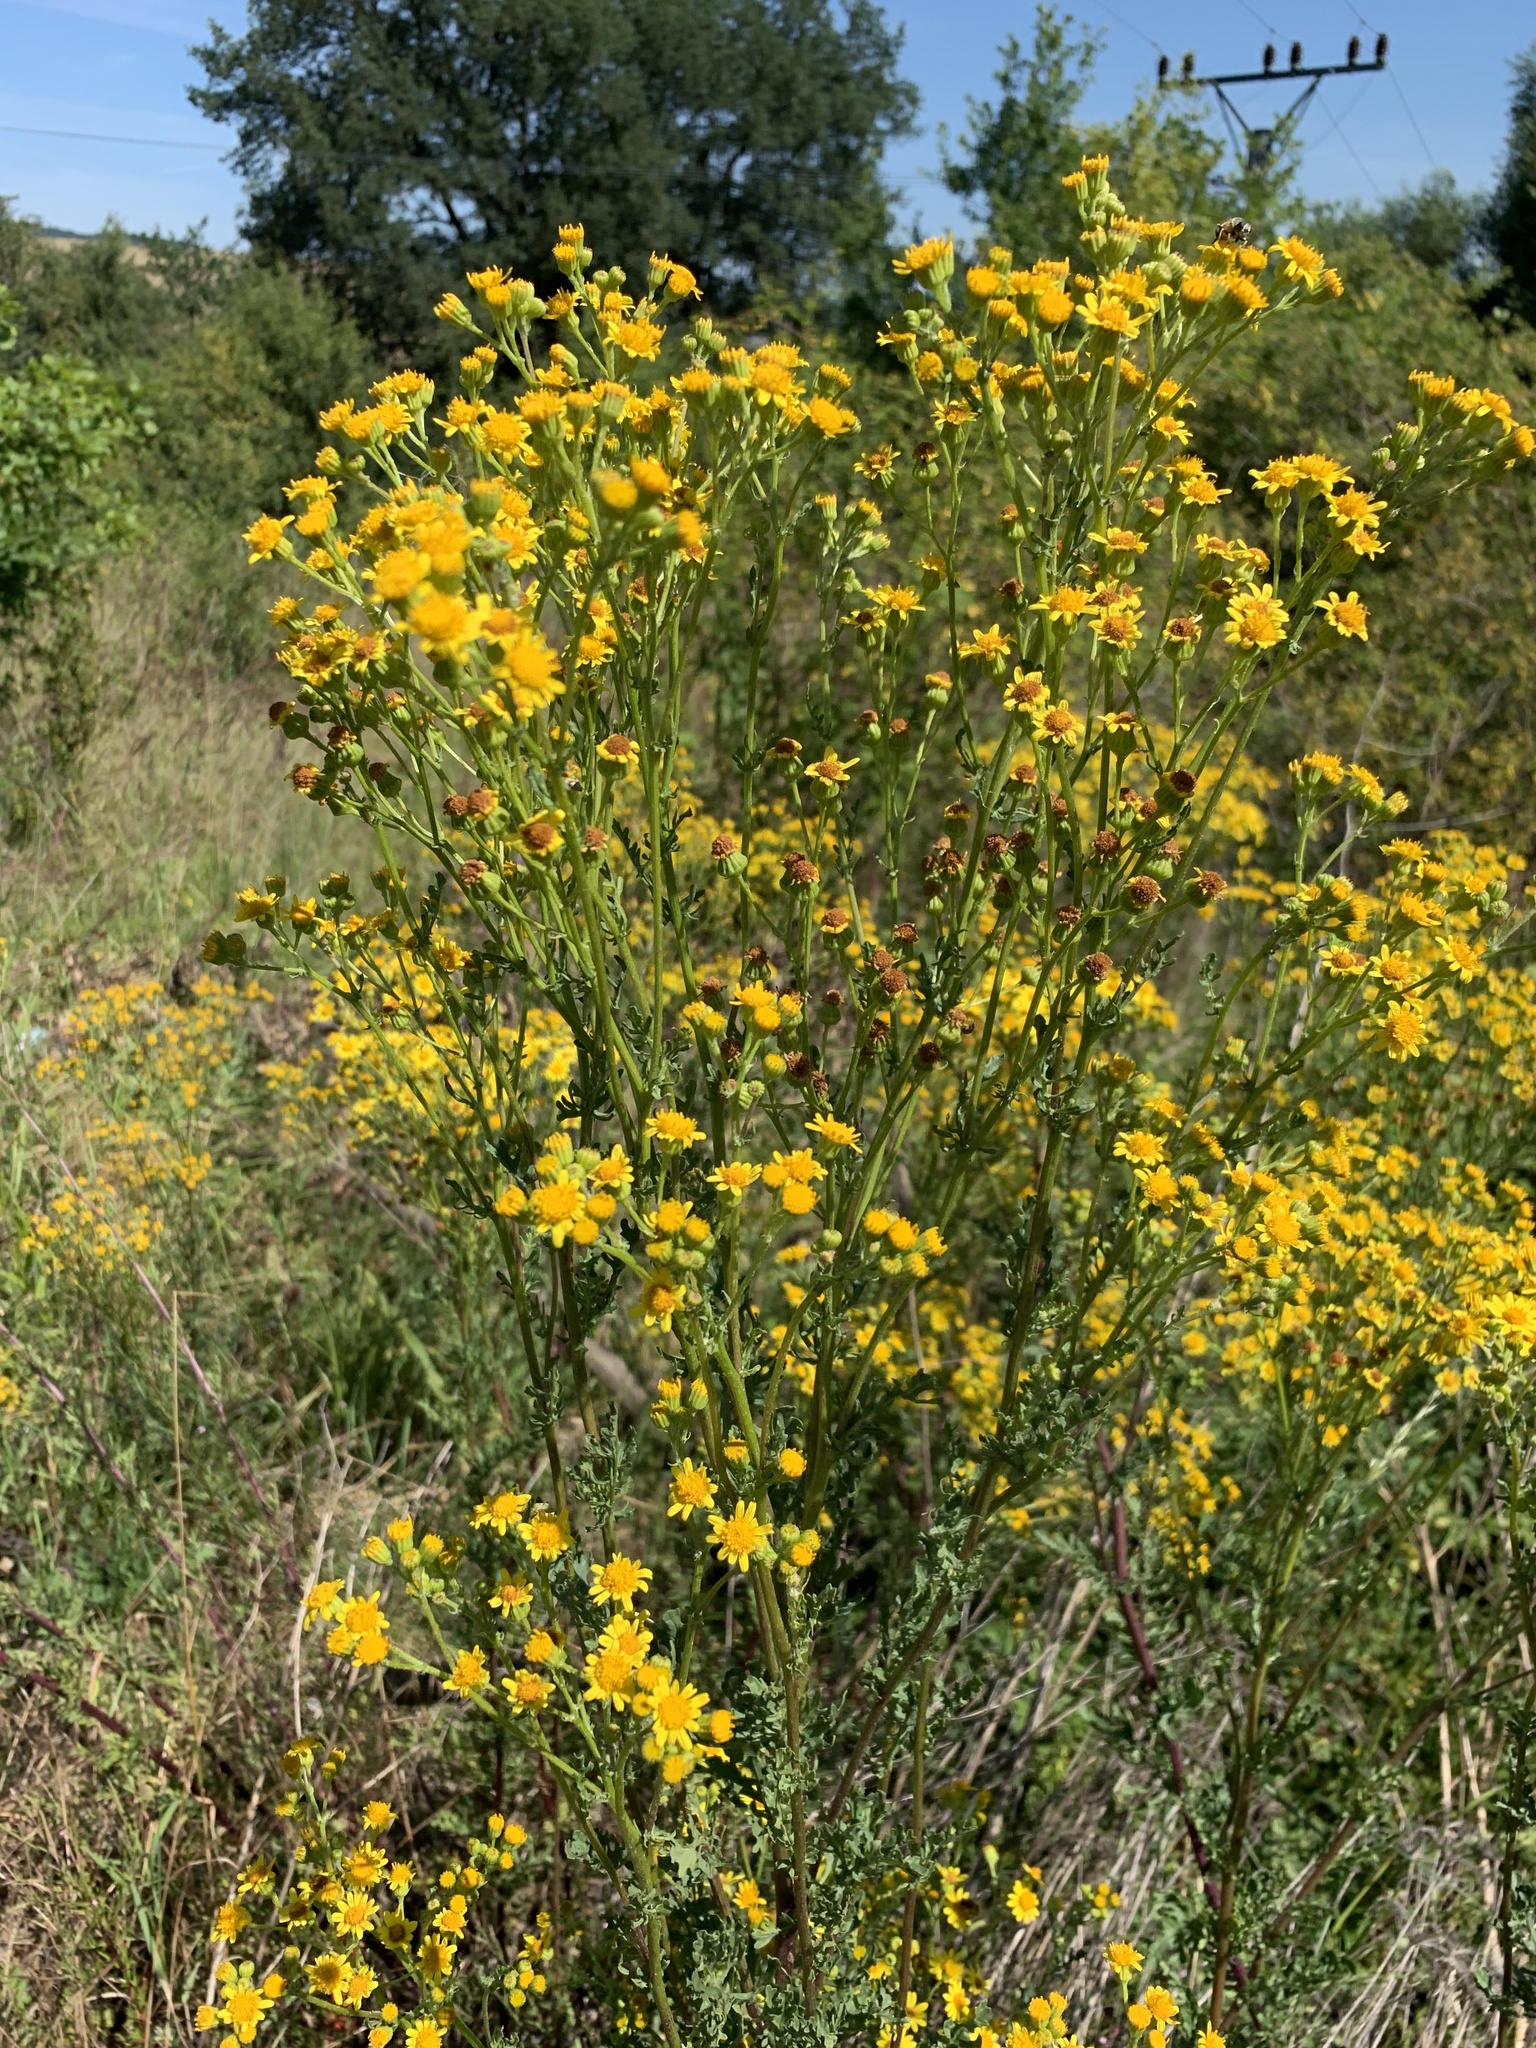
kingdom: Plantae
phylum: Tracheophyta
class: Magnoliopsida
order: Asterales
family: Asteraceae
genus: Jacobaea
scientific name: Jacobaea vulgaris
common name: Stinking willie
